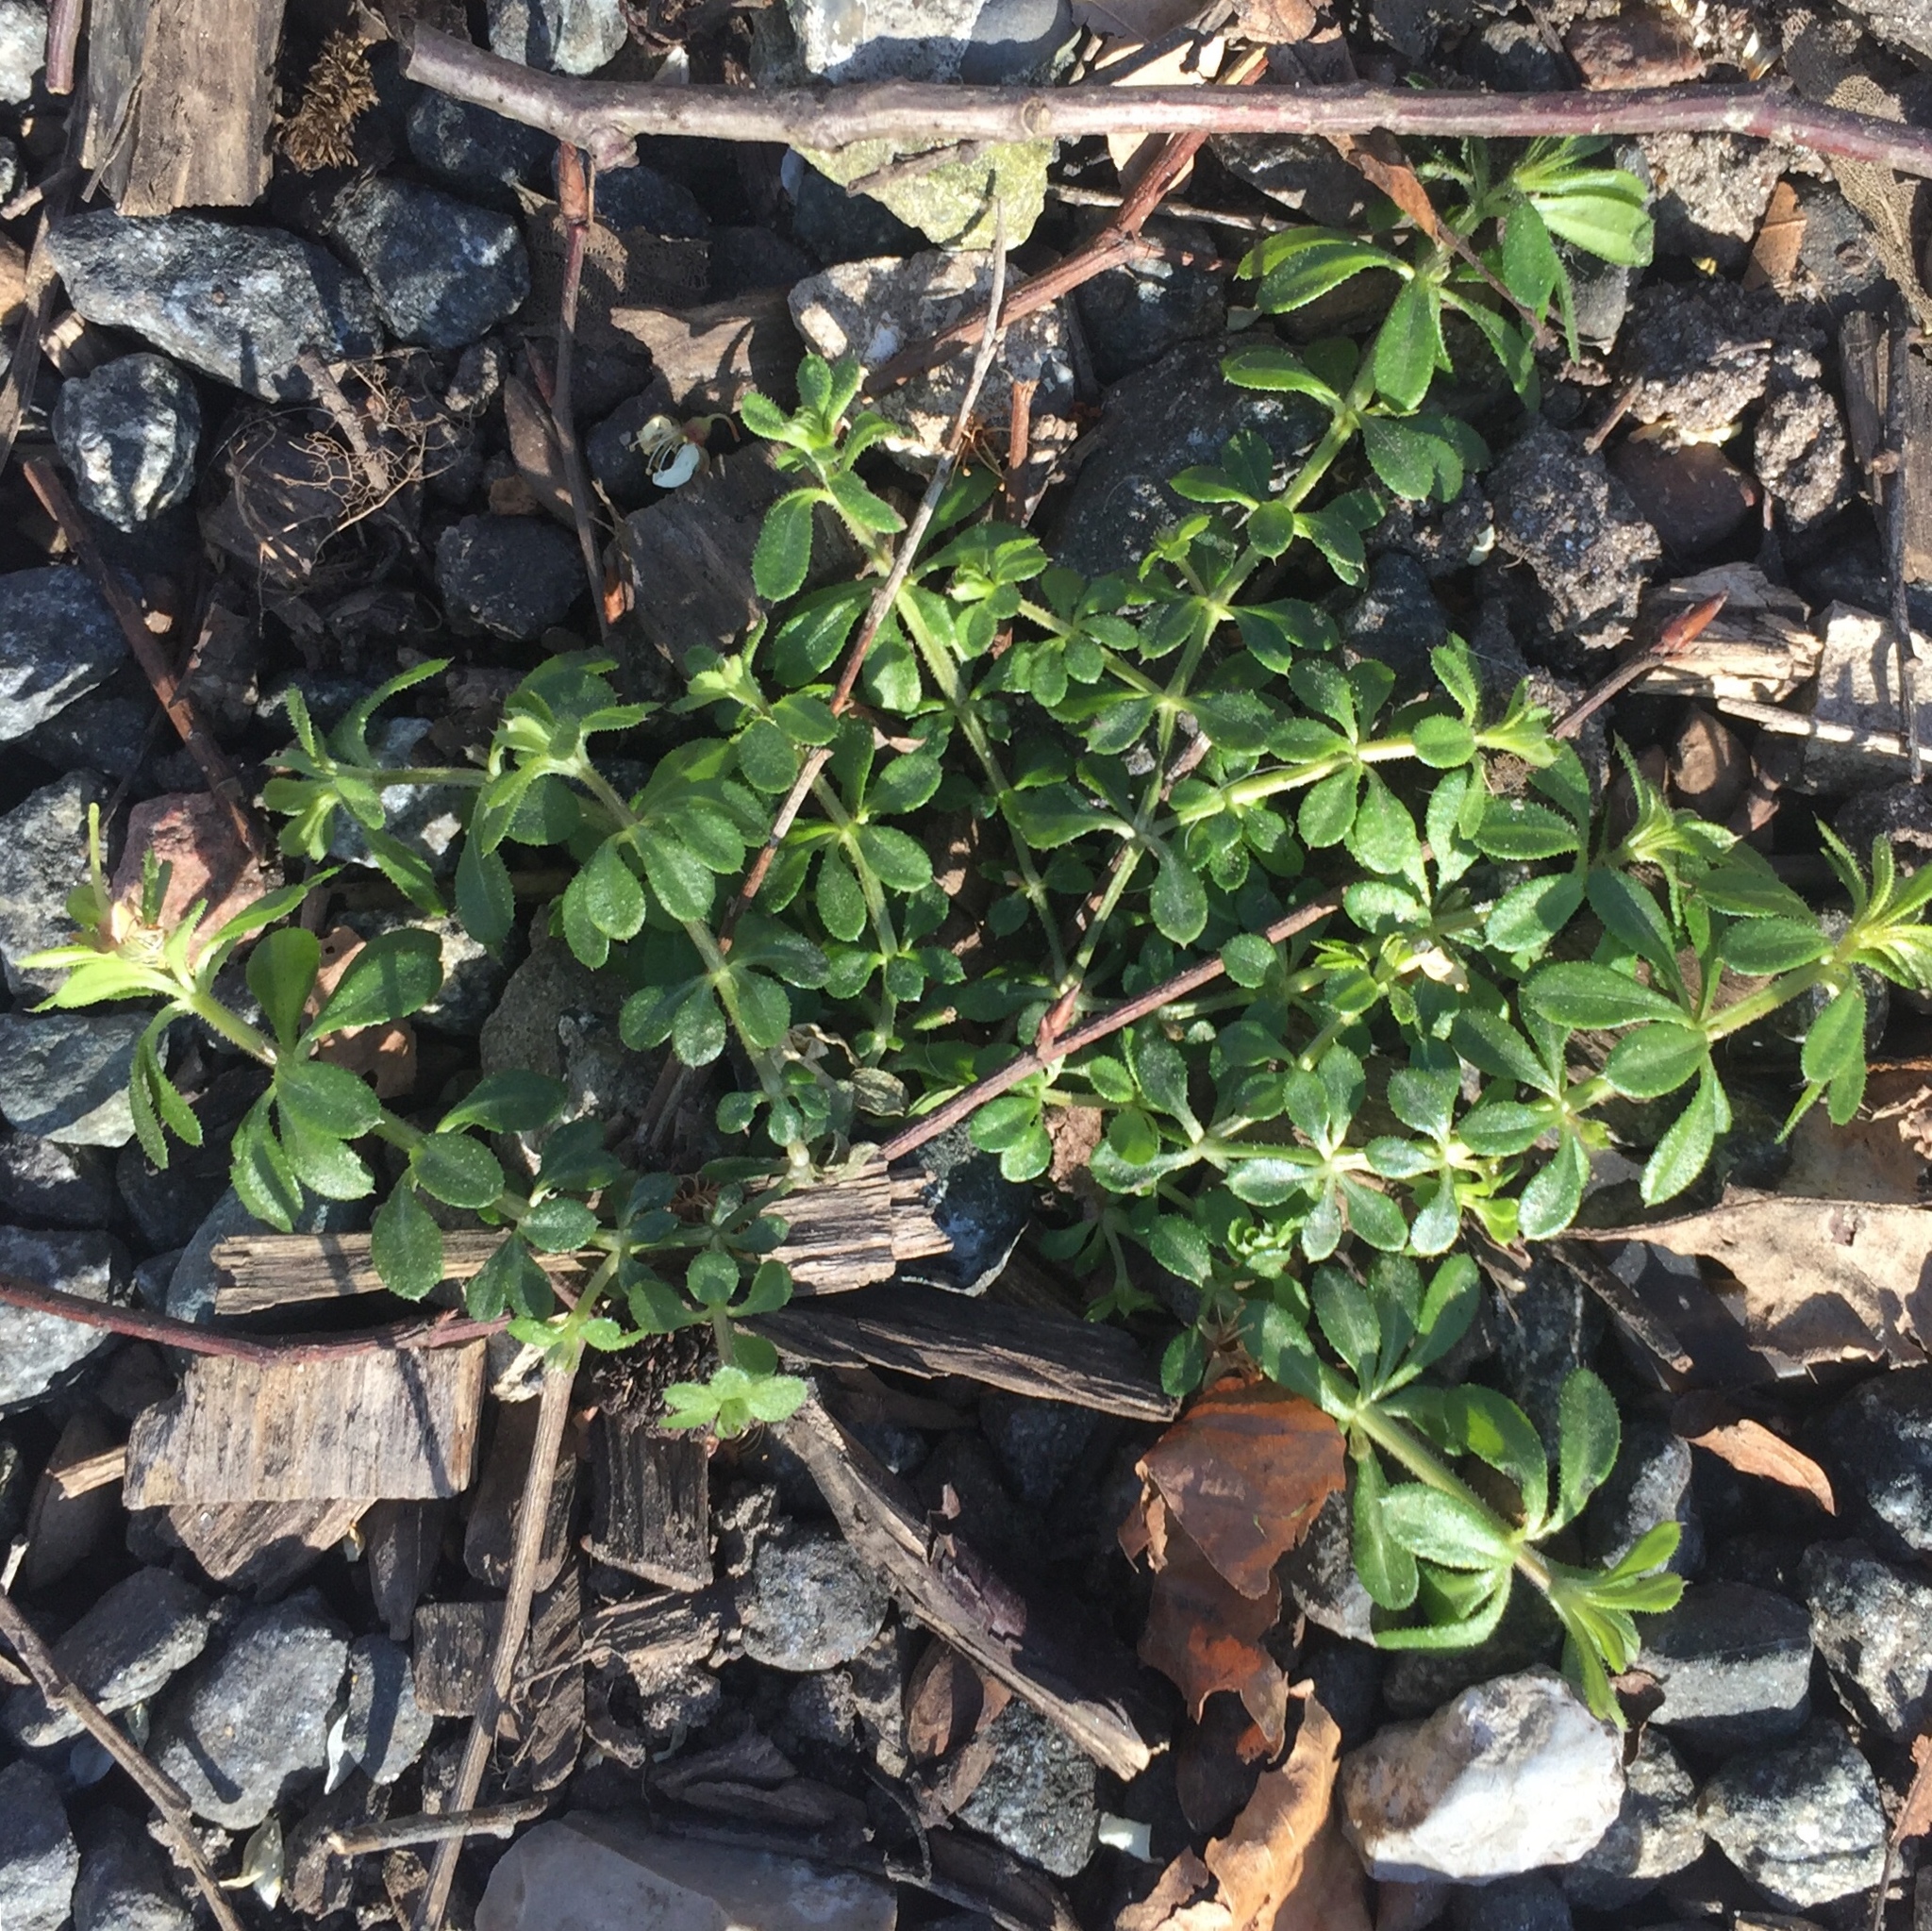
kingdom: Plantae
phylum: Tracheophyta
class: Magnoliopsida
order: Gentianales
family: Rubiaceae
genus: Galium
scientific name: Galium aparine
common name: Cleavers
